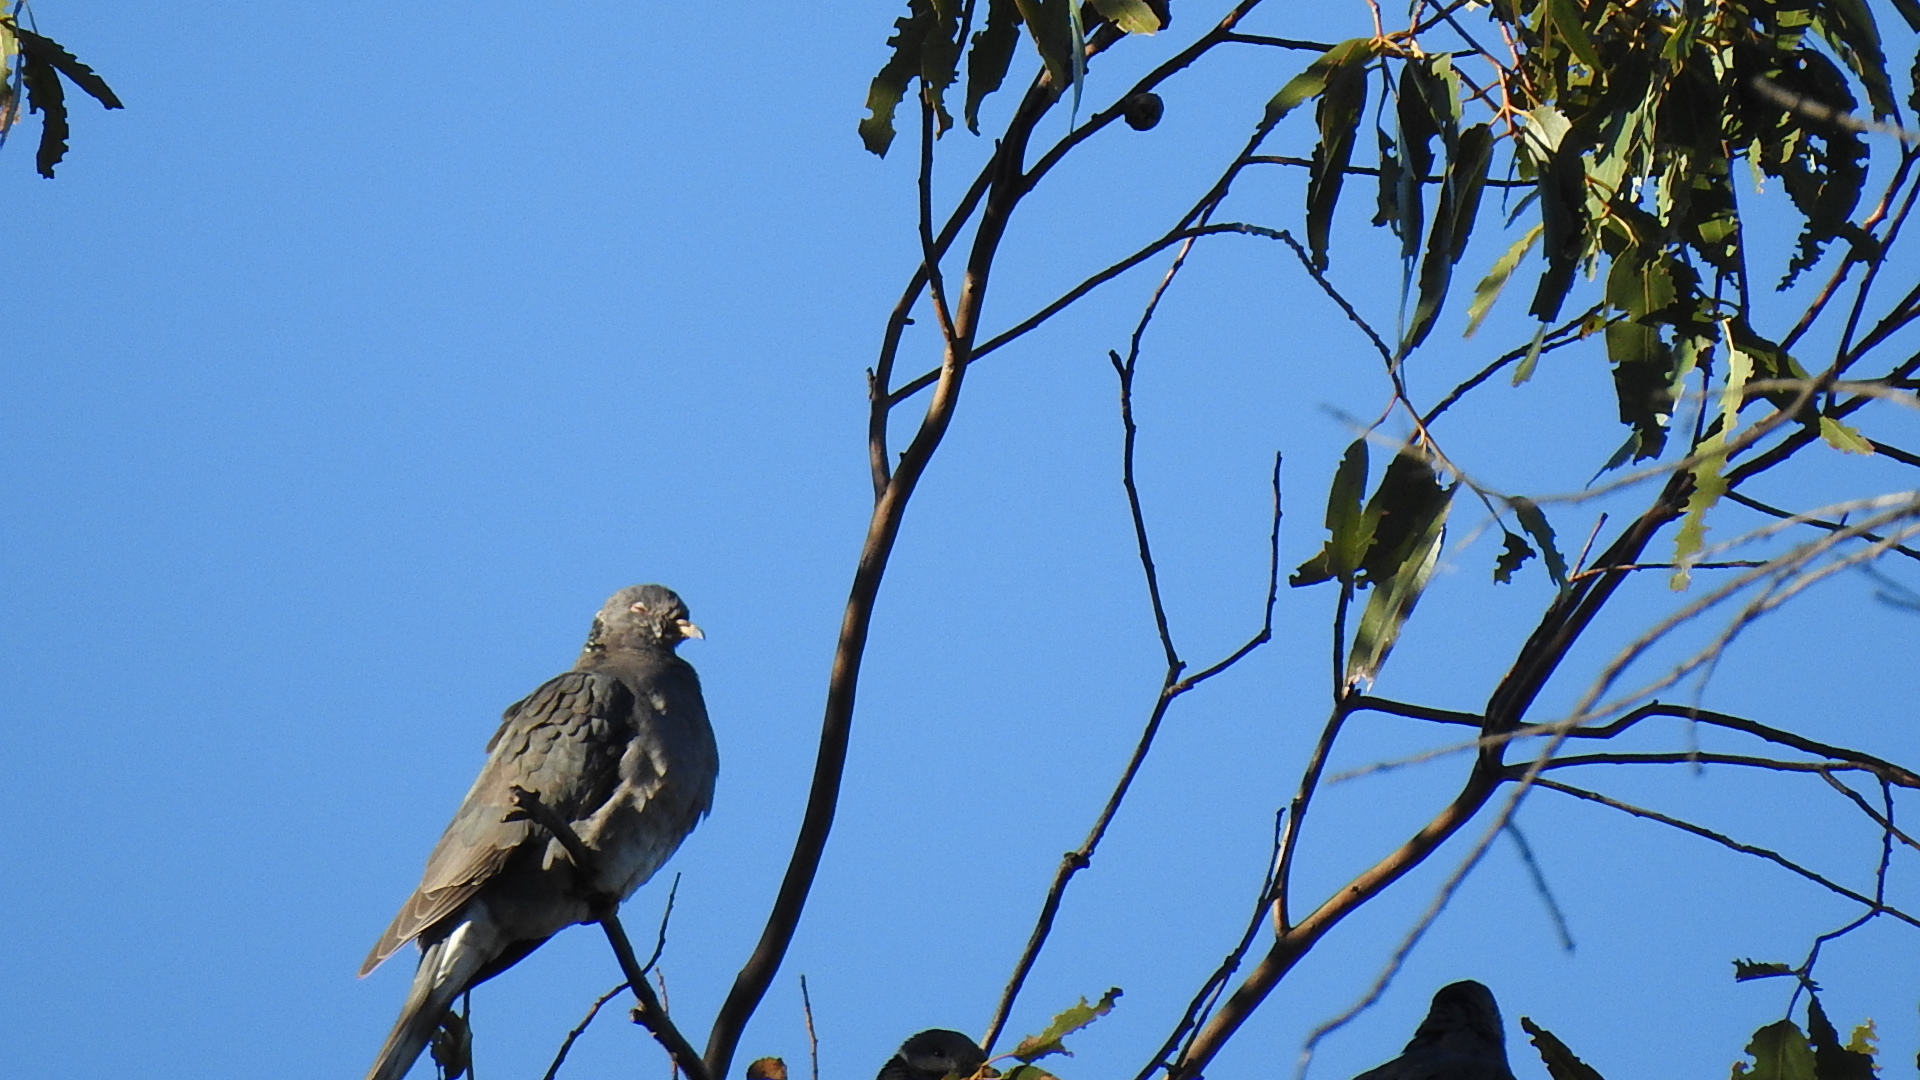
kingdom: Animalia
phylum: Chordata
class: Aves
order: Columbiformes
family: Columbidae
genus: Patagioenas
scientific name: Patagioenas fasciata
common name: Band-tailed pigeon
